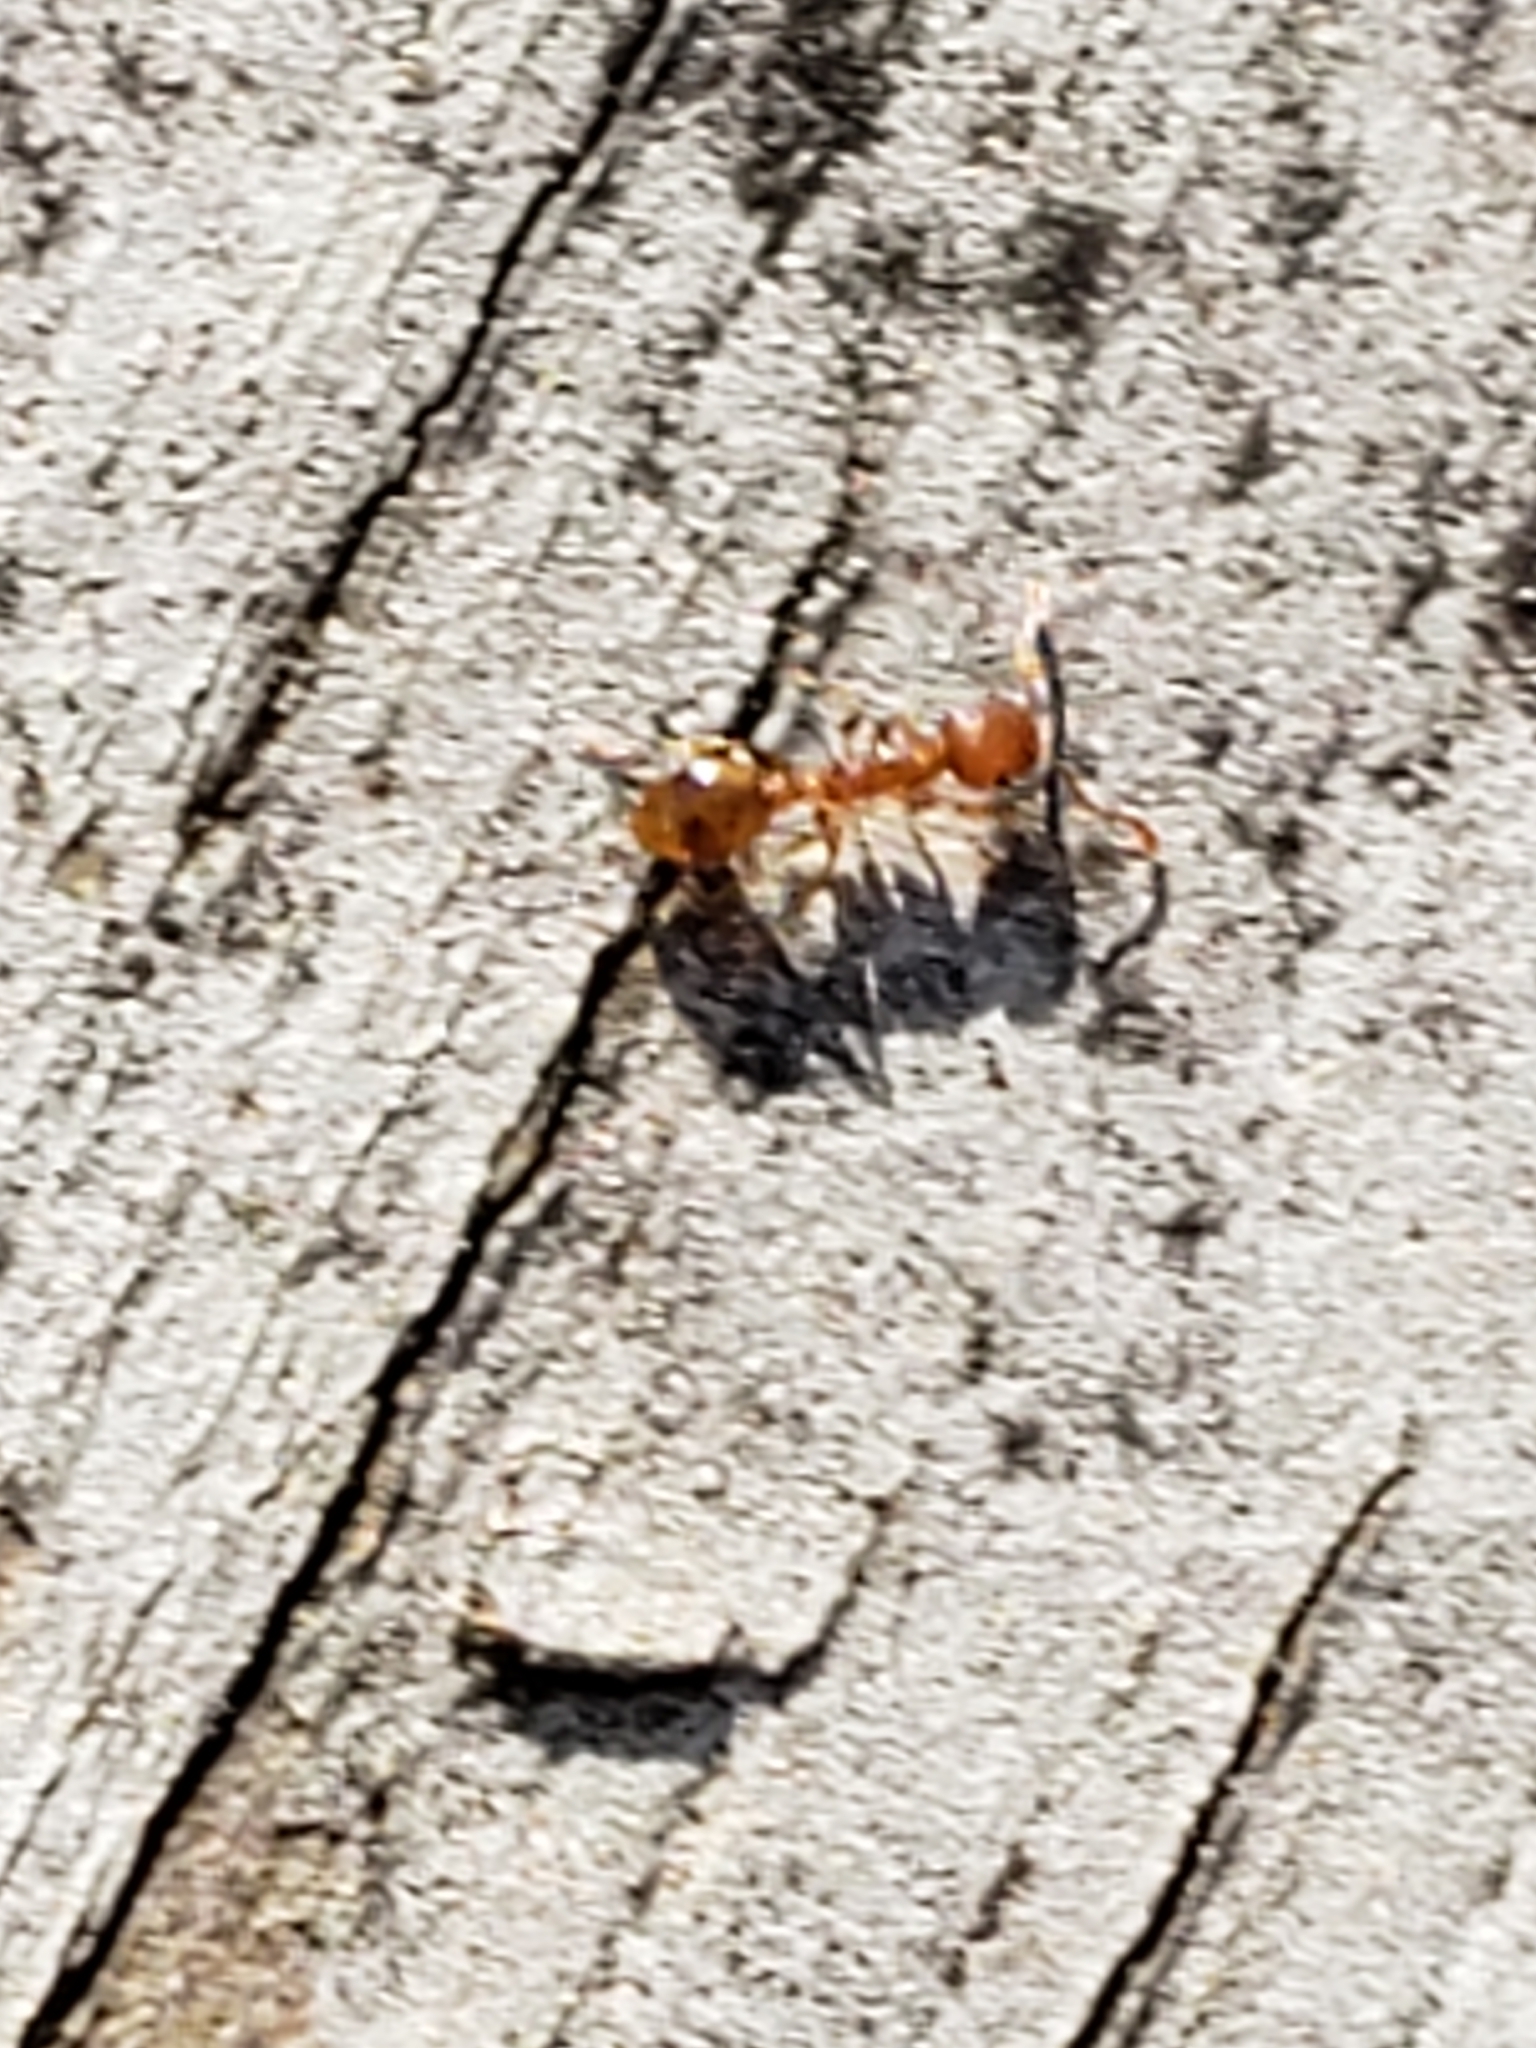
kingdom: Animalia
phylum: Arthropoda
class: Insecta
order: Hymenoptera
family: Formicidae
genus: Temnothorax
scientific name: Temnothorax curvispinosus
